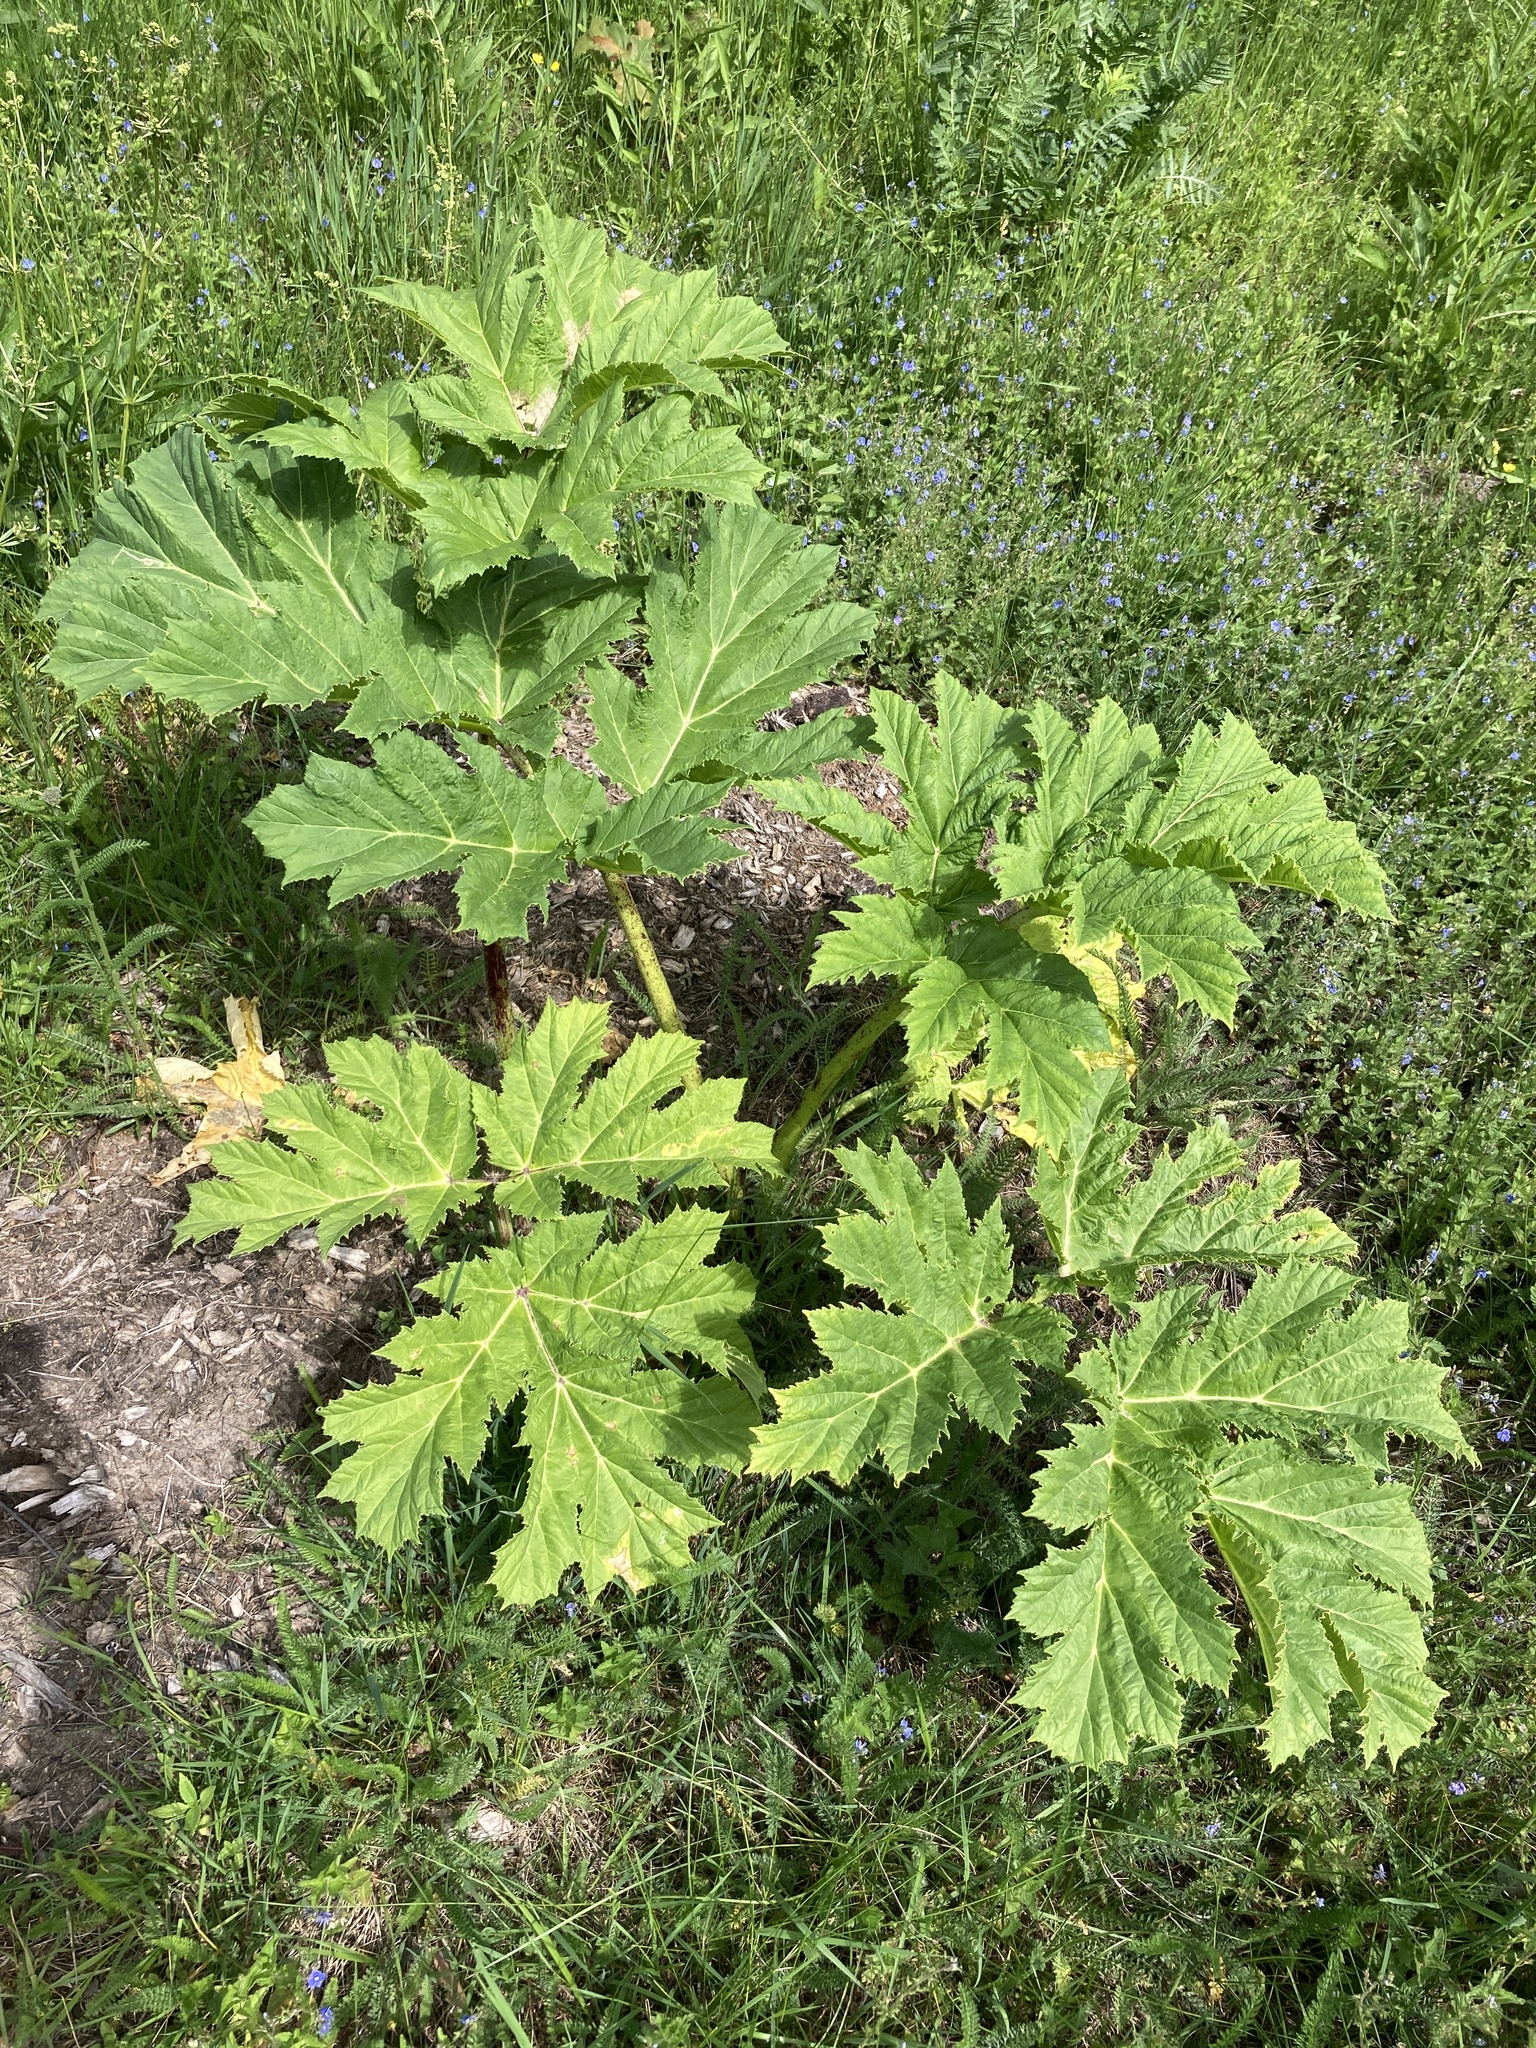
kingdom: Plantae
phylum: Tracheophyta
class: Magnoliopsida
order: Apiales
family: Apiaceae
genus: Heracleum
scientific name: Heracleum sosnowskyi
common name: Sosnowsky's hogweed
